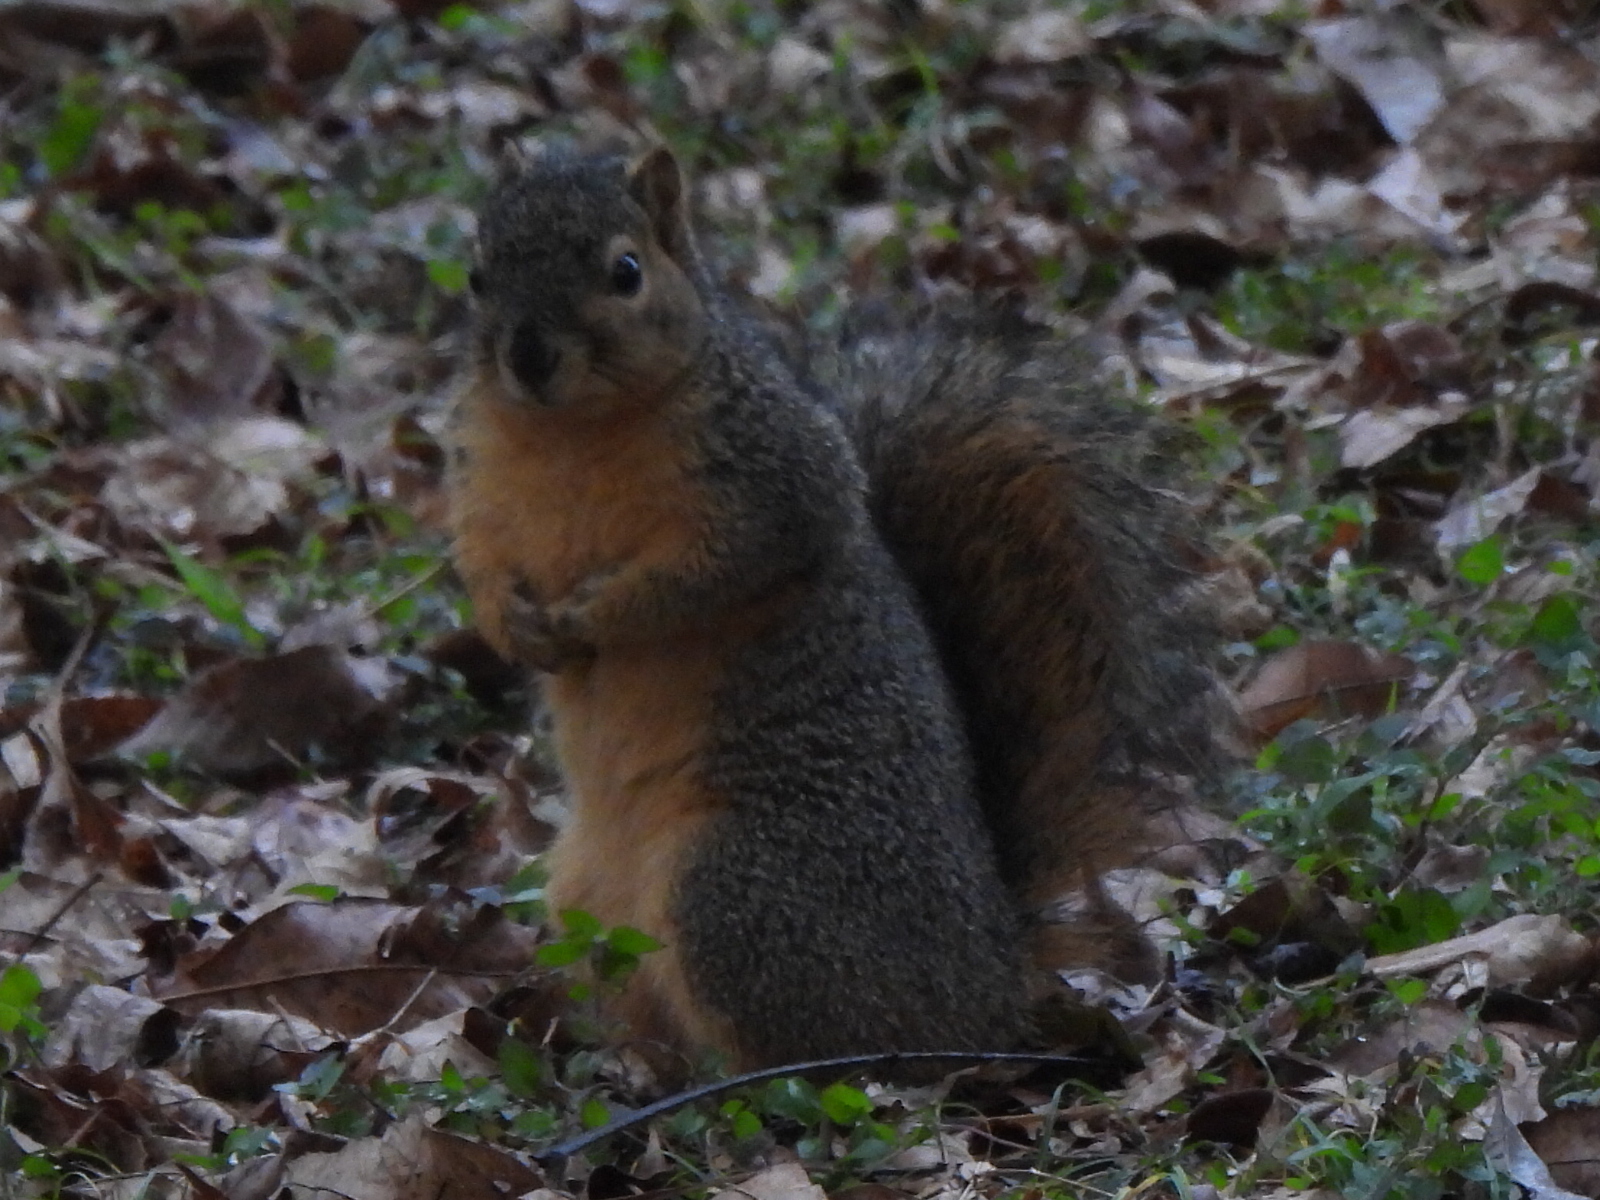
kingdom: Animalia
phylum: Chordata
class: Mammalia
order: Rodentia
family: Sciuridae
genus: Sciurus
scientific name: Sciurus niger
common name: Fox squirrel
